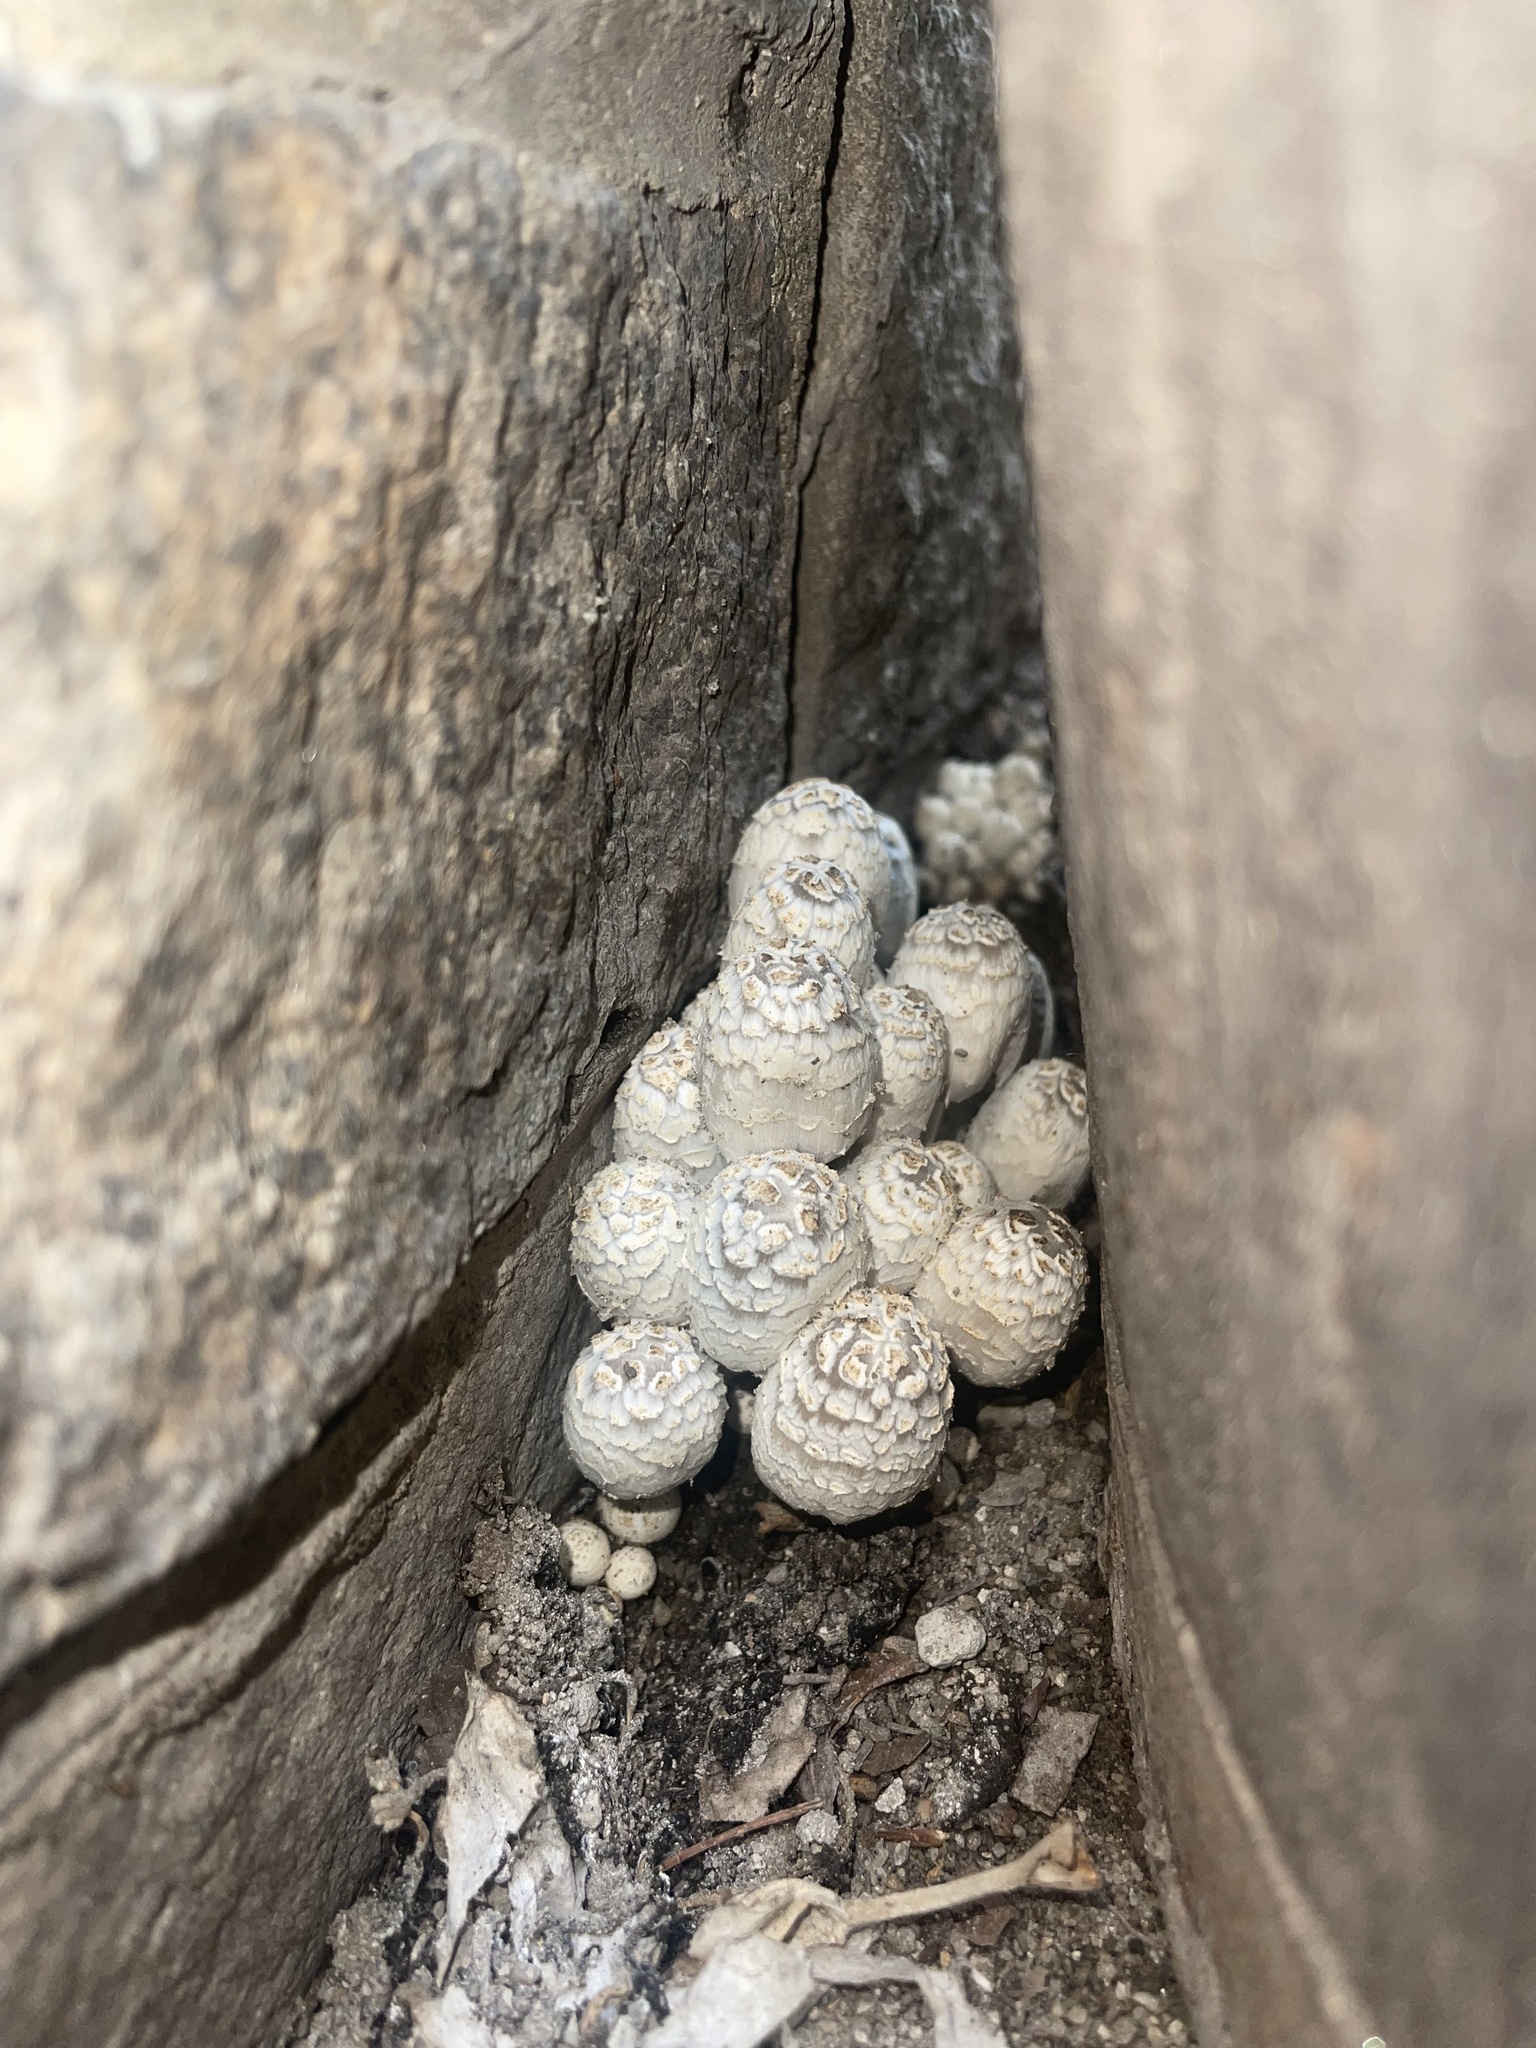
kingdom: Fungi
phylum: Basidiomycota
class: Agaricomycetes
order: Agaricales
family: Psathyrellaceae
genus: Coprinopsis
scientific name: Coprinopsis variegata
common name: Scaly ink cap
